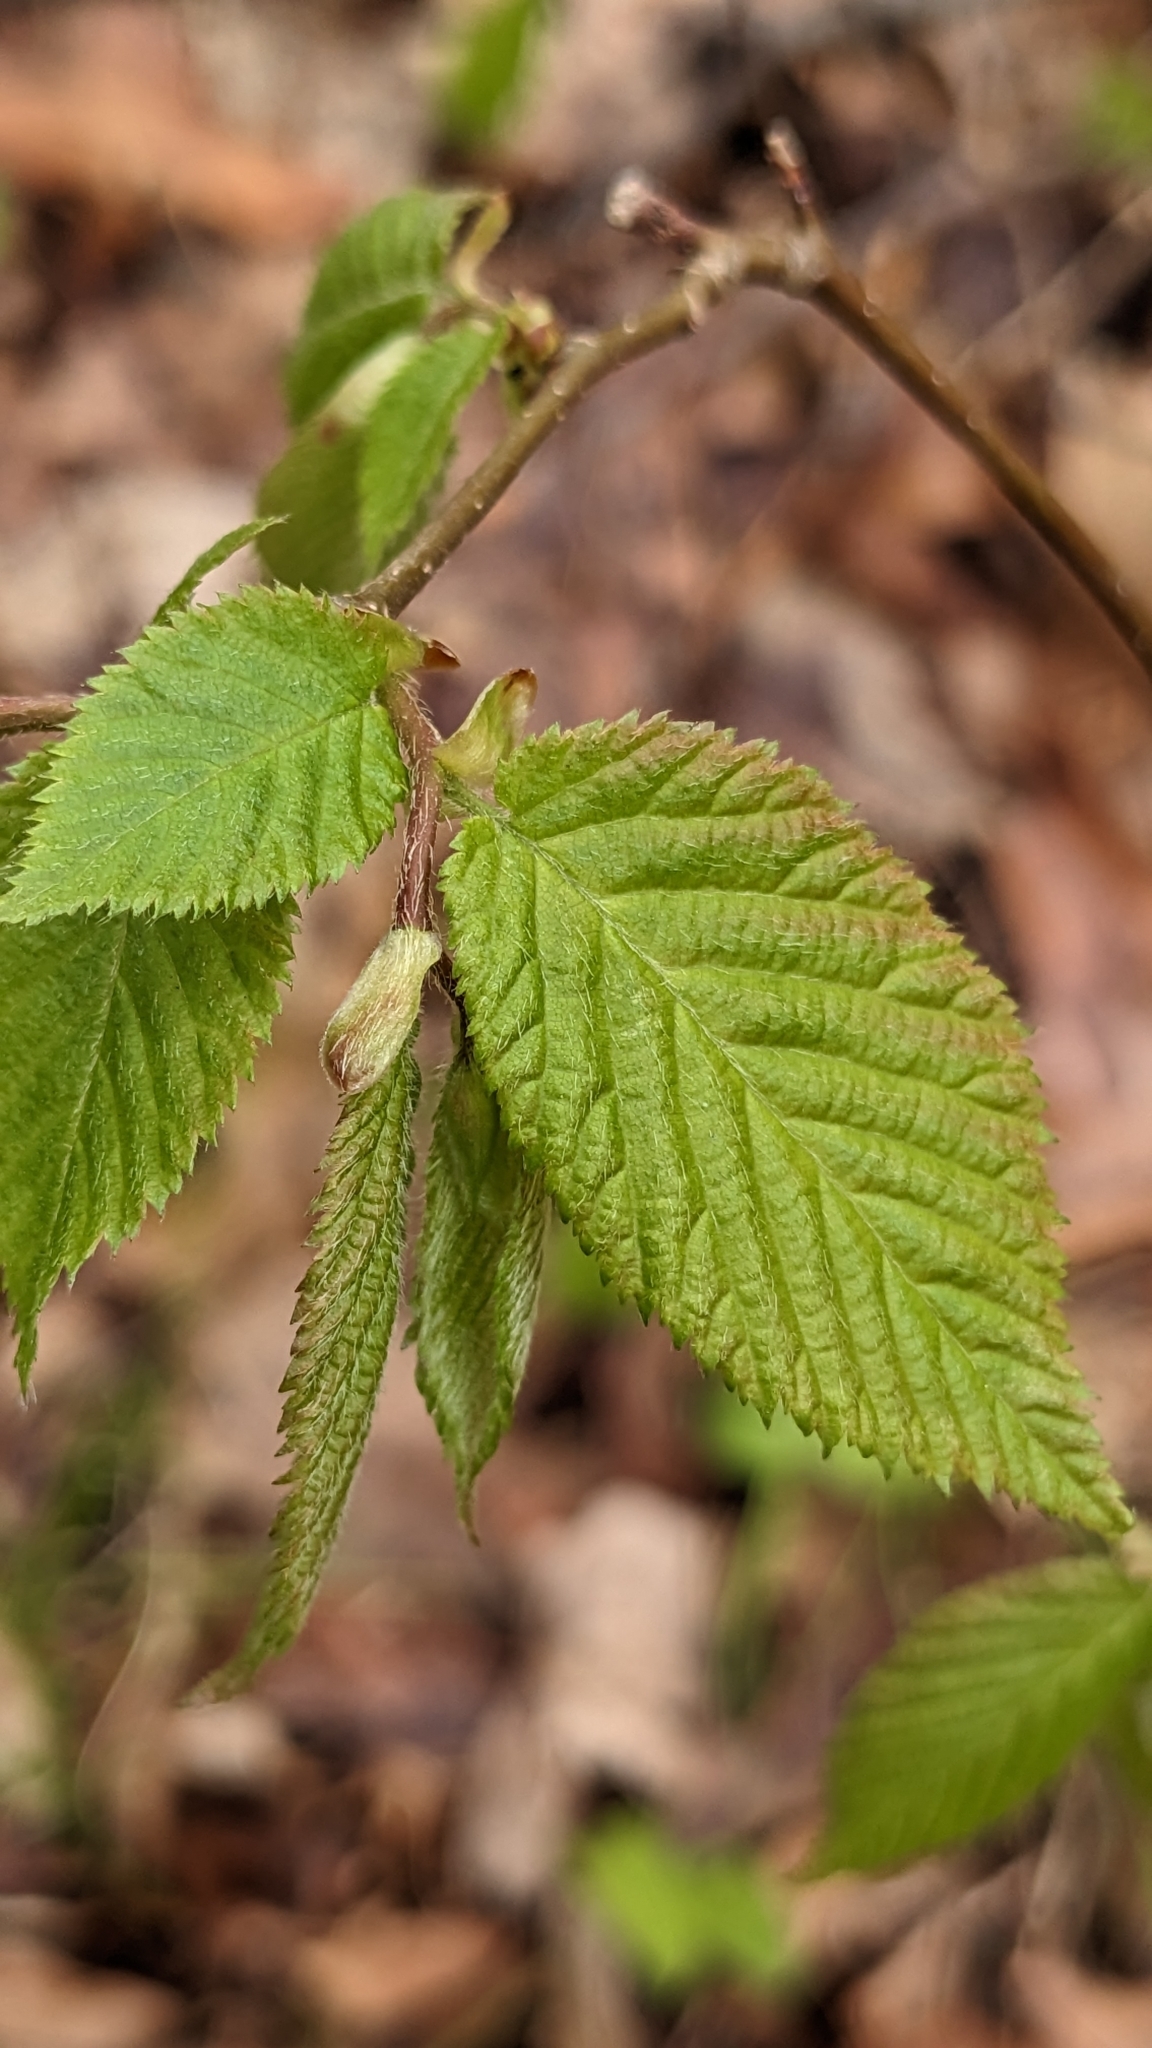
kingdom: Plantae
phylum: Tracheophyta
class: Magnoliopsida
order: Fagales
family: Betulaceae
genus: Ostrya
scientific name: Ostrya virginiana
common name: Ironwood
